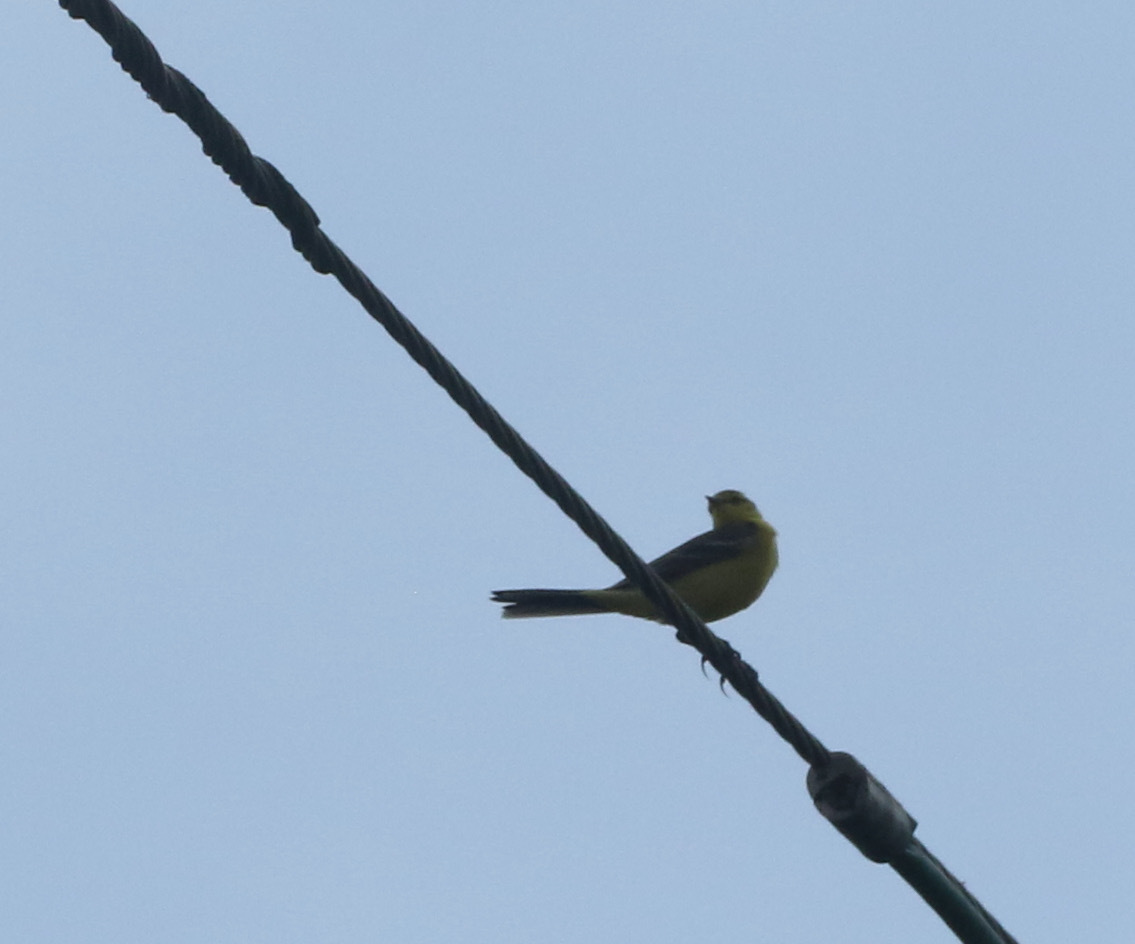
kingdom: Animalia
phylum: Chordata
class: Aves
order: Passeriformes
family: Motacillidae
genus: Motacilla
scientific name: Motacilla flava
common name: Western yellow wagtail
